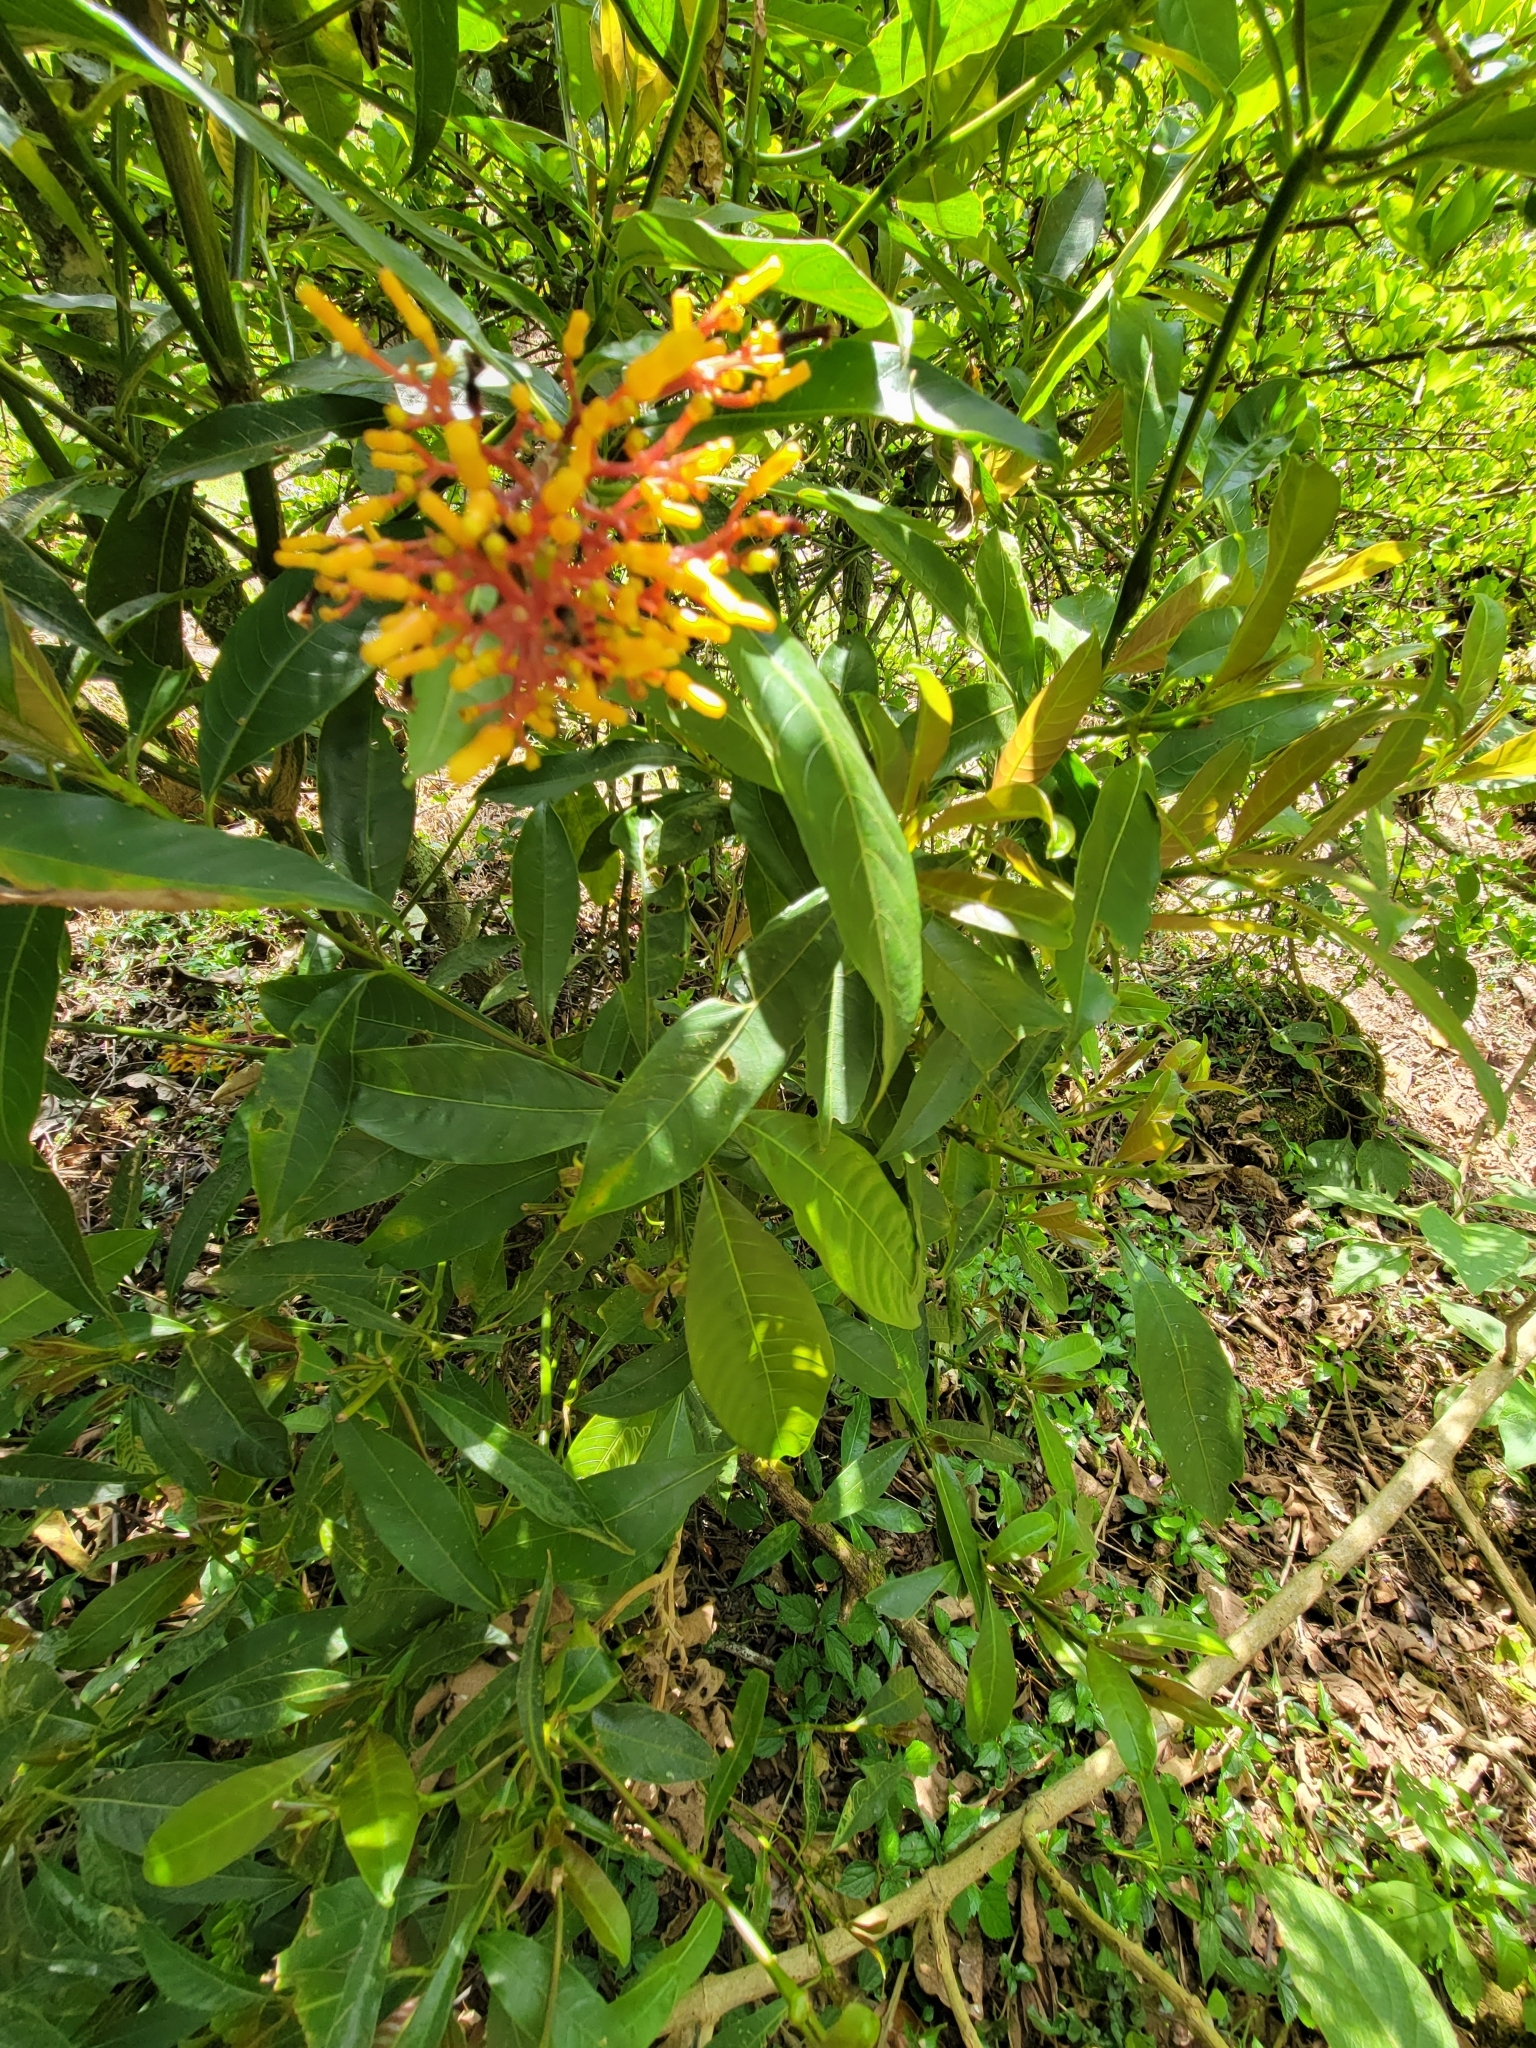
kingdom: Plantae
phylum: Tracheophyta
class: Magnoliopsida
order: Gentianales
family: Rubiaceae
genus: Hamelia
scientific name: Hamelia patens
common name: Redhead
